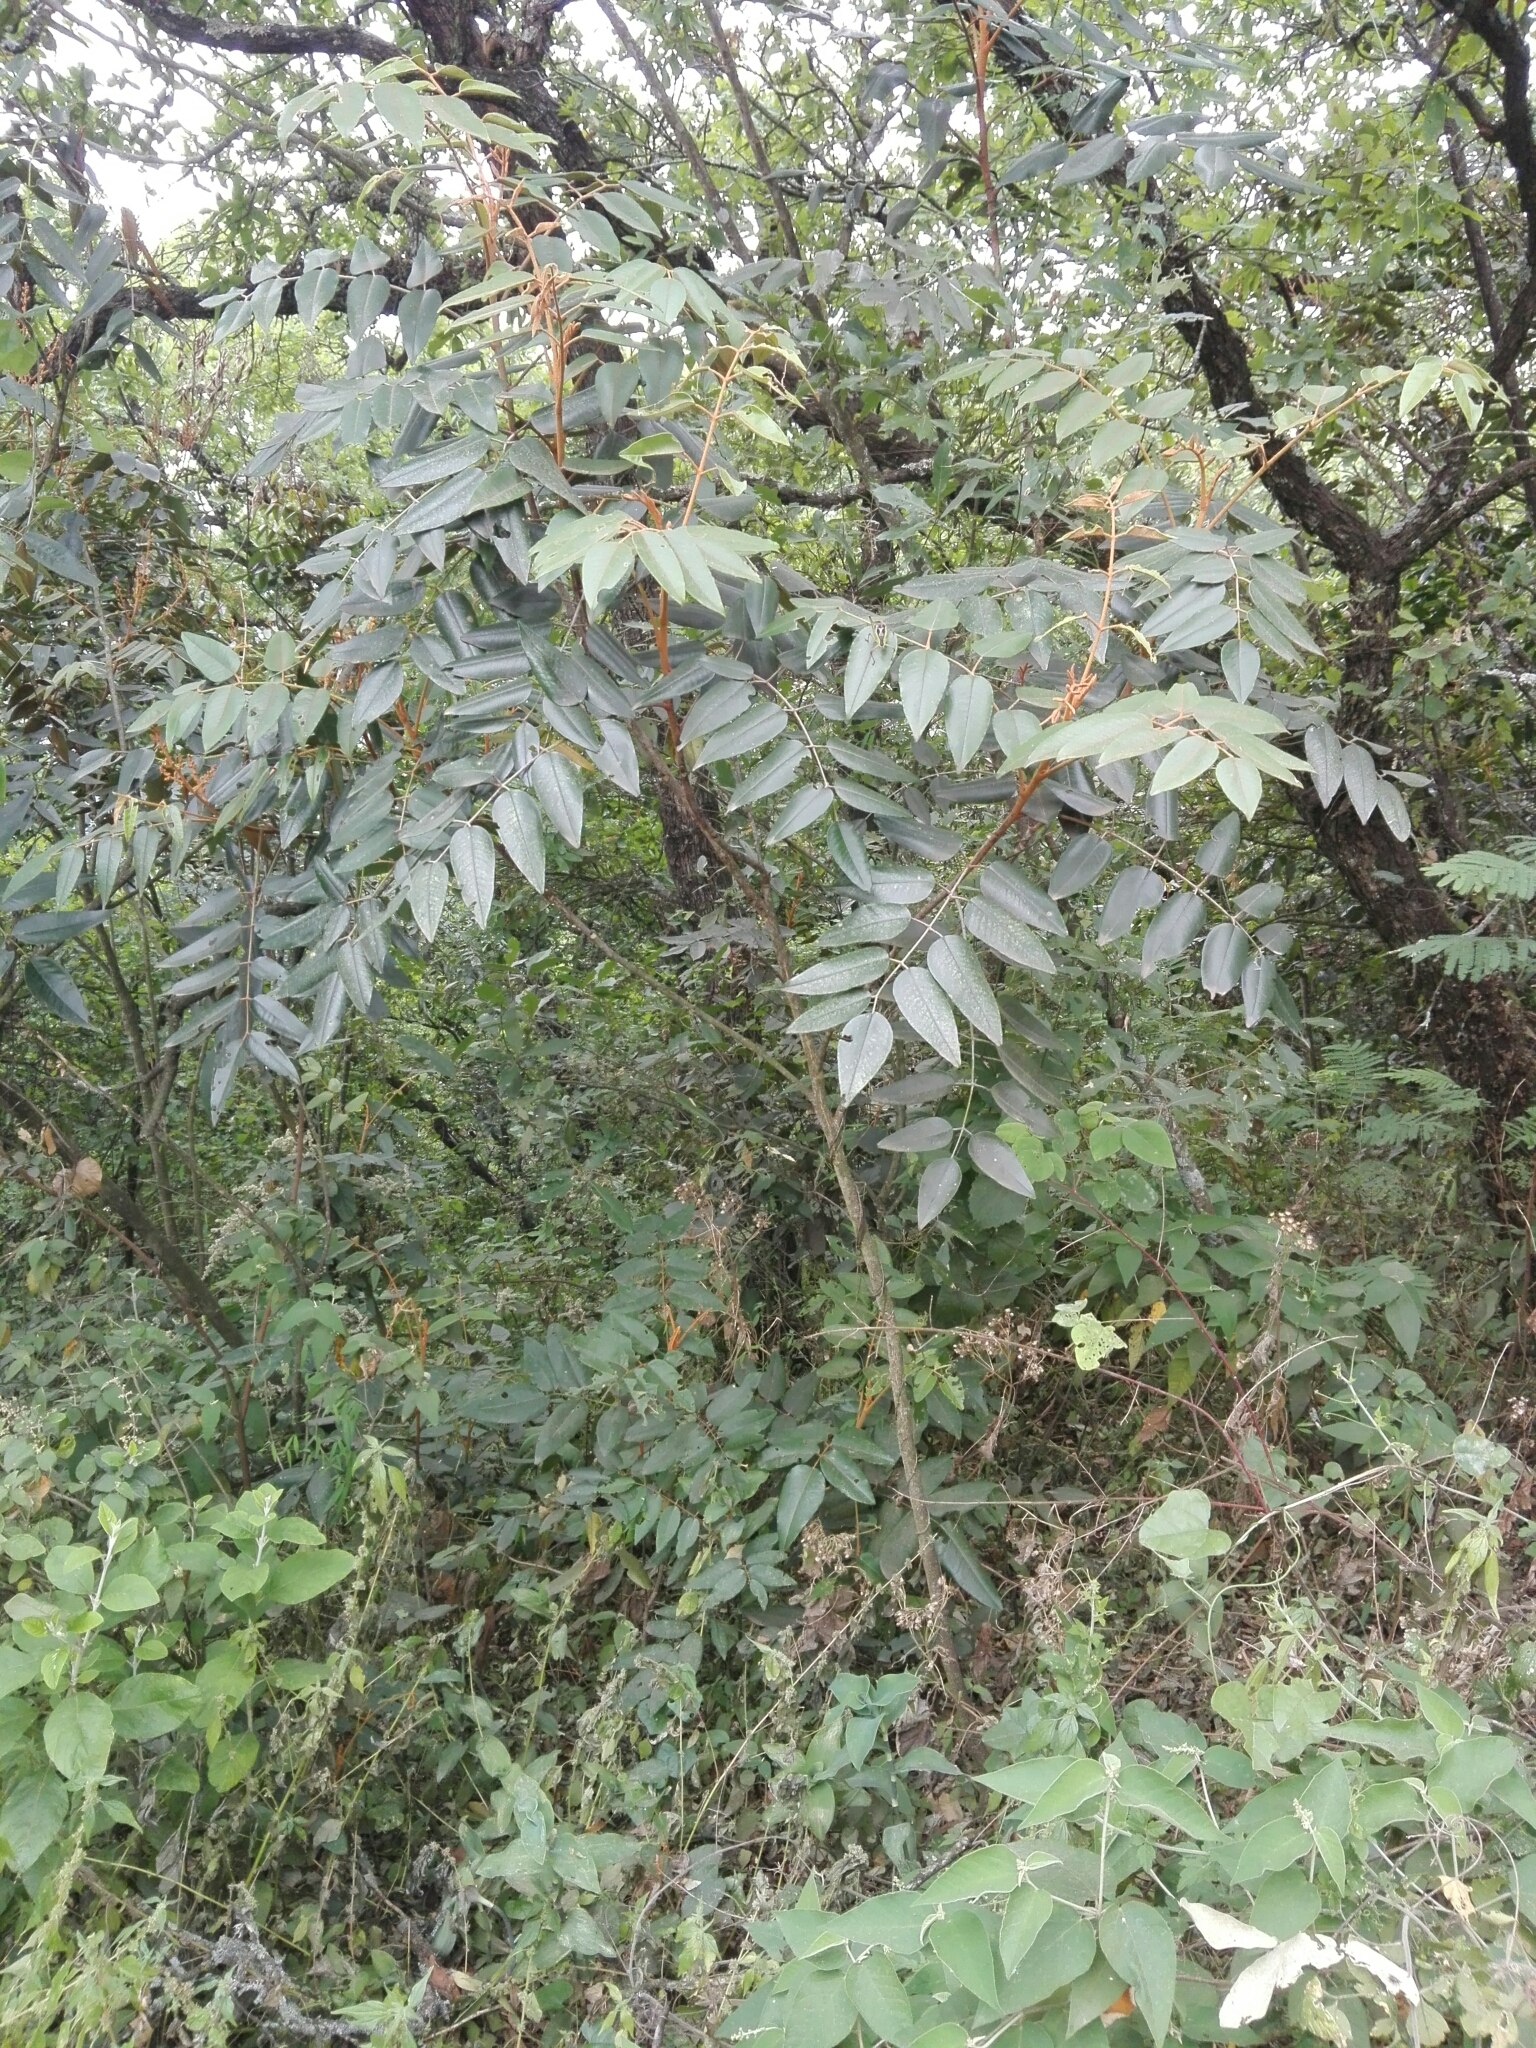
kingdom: Plantae
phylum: Tracheophyta
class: Magnoliopsida
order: Sapindales
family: Rutaceae
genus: Decatropis
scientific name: Decatropis bicolor
